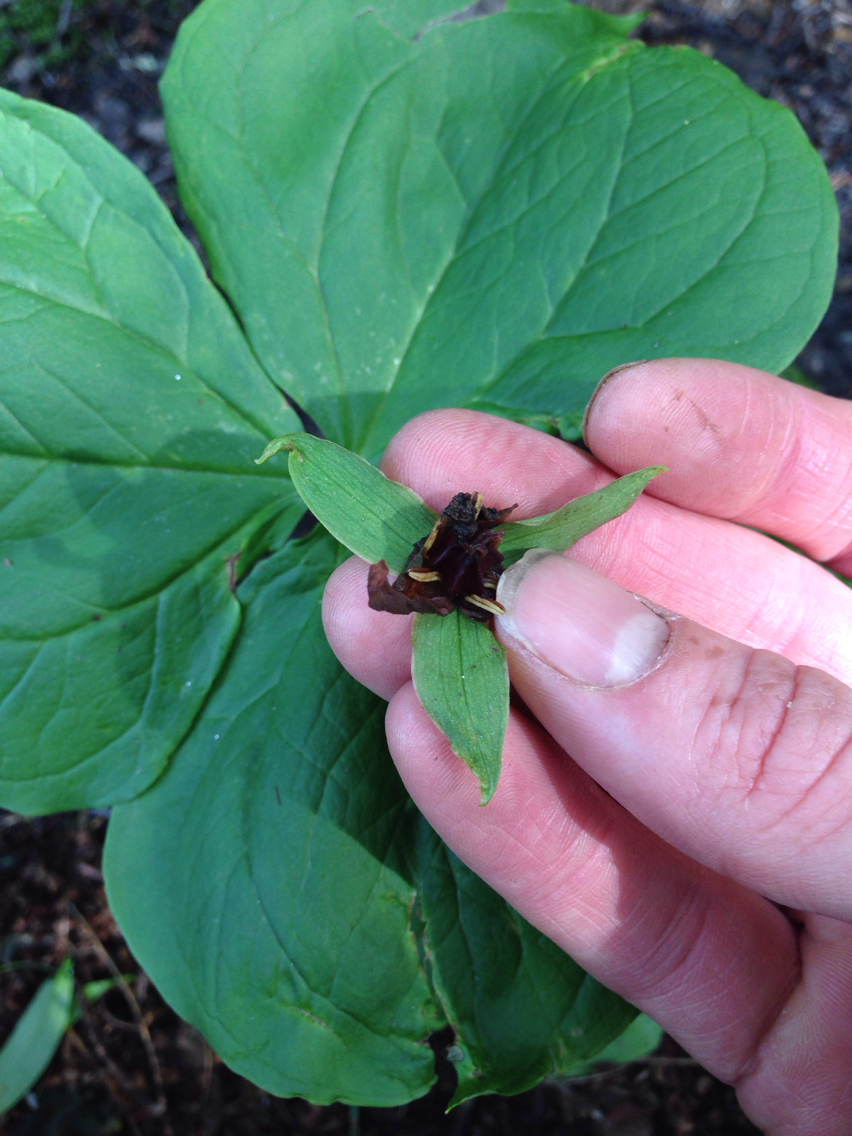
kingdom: Plantae
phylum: Tracheophyta
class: Liliopsida
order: Liliales
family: Melanthiaceae
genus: Trillium
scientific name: Trillium erectum
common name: Purple trillium
